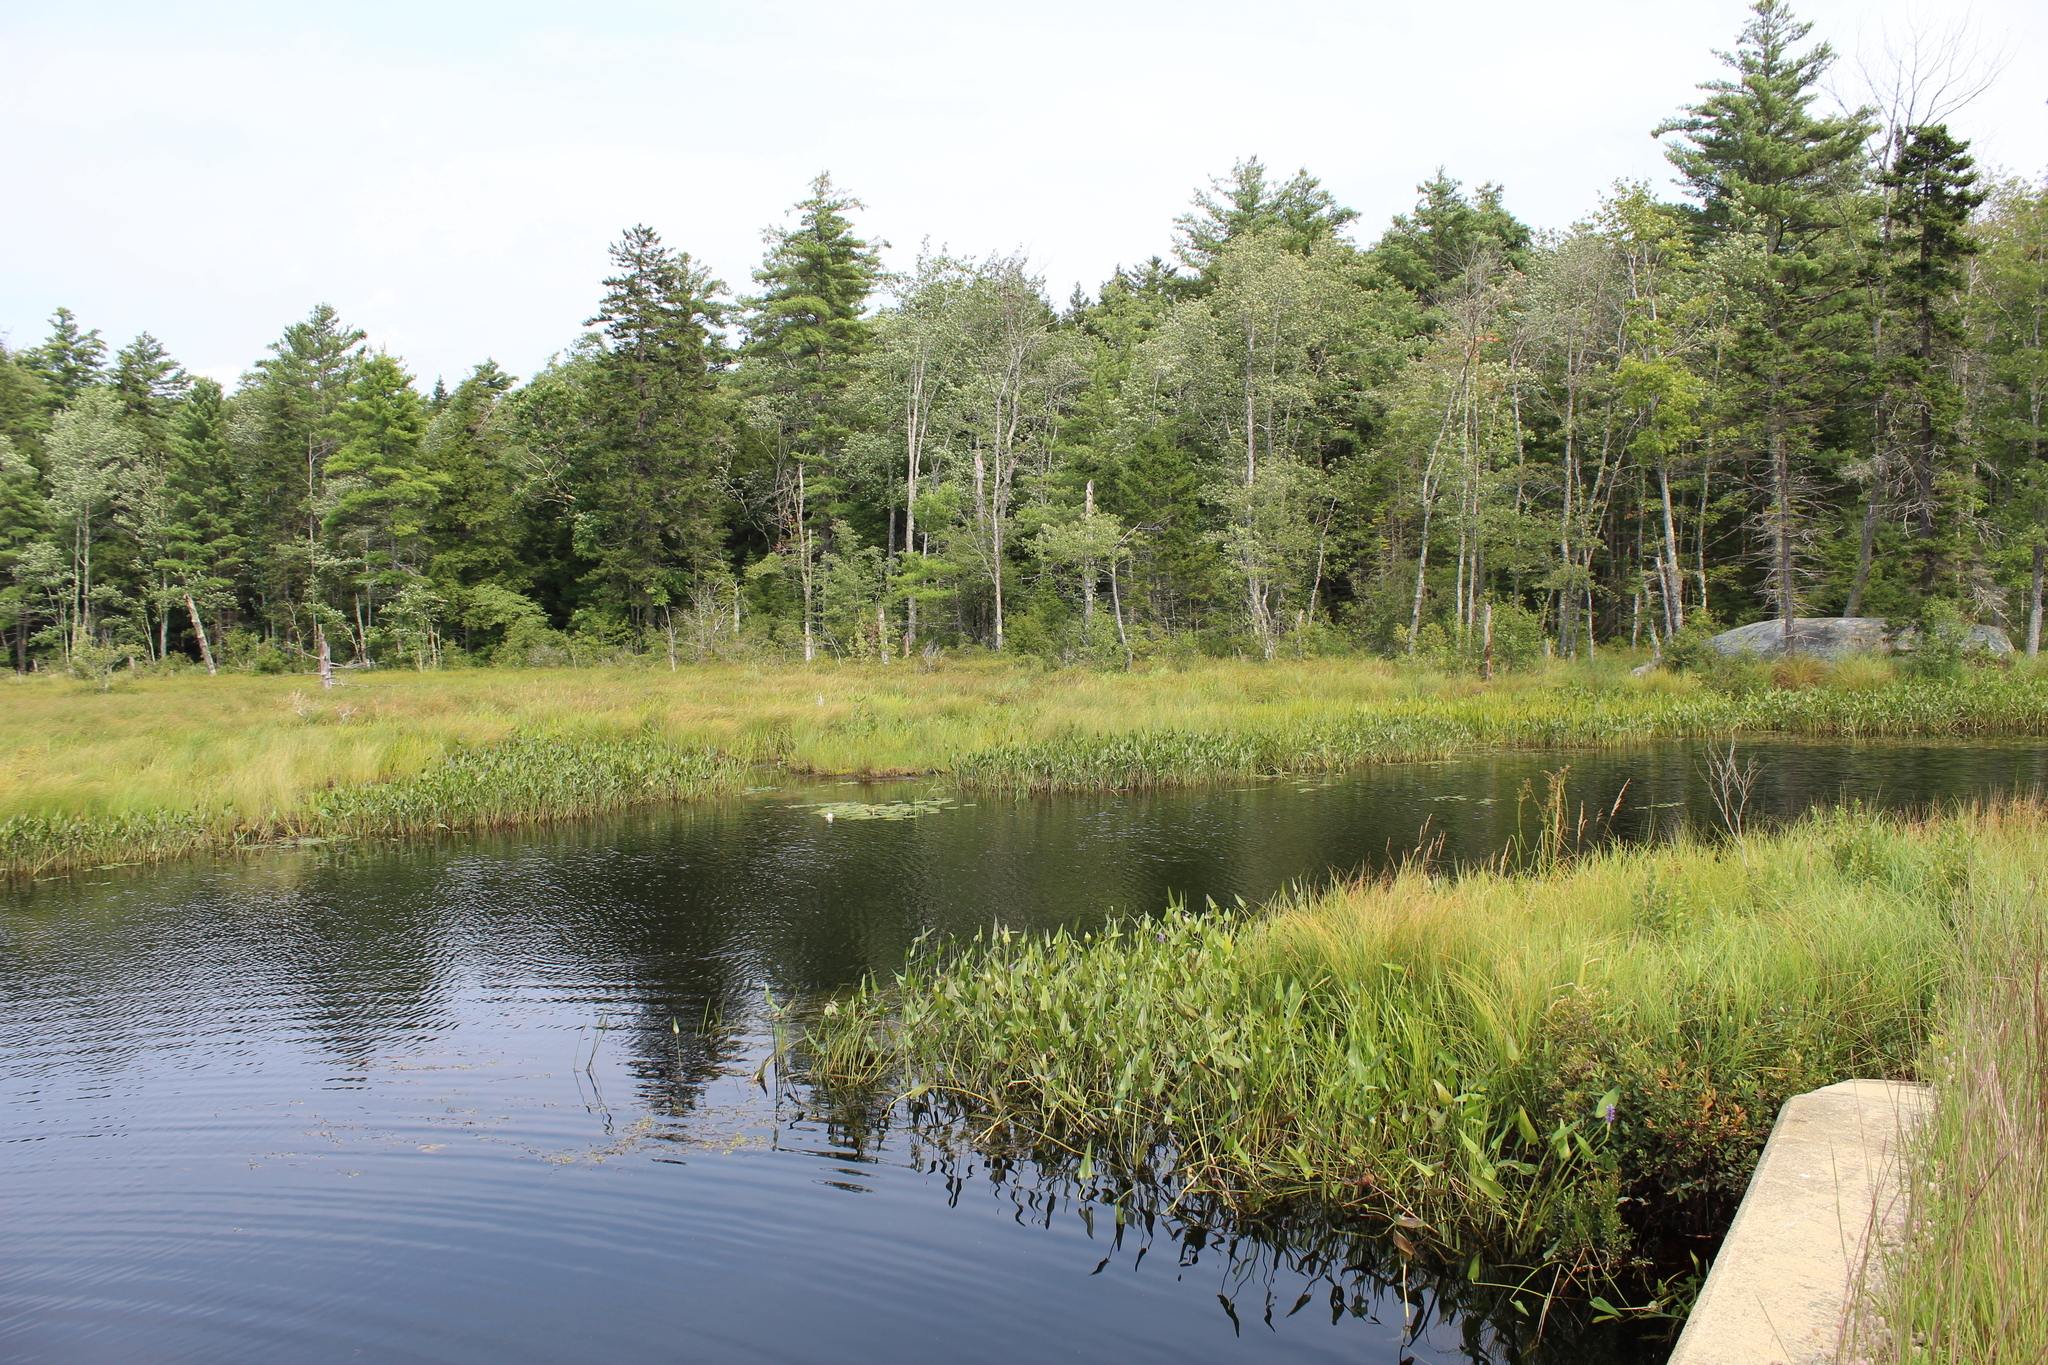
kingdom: Plantae
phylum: Tracheophyta
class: Liliopsida
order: Commelinales
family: Pontederiaceae
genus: Pontederia
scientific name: Pontederia cordata
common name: Pickerelweed
